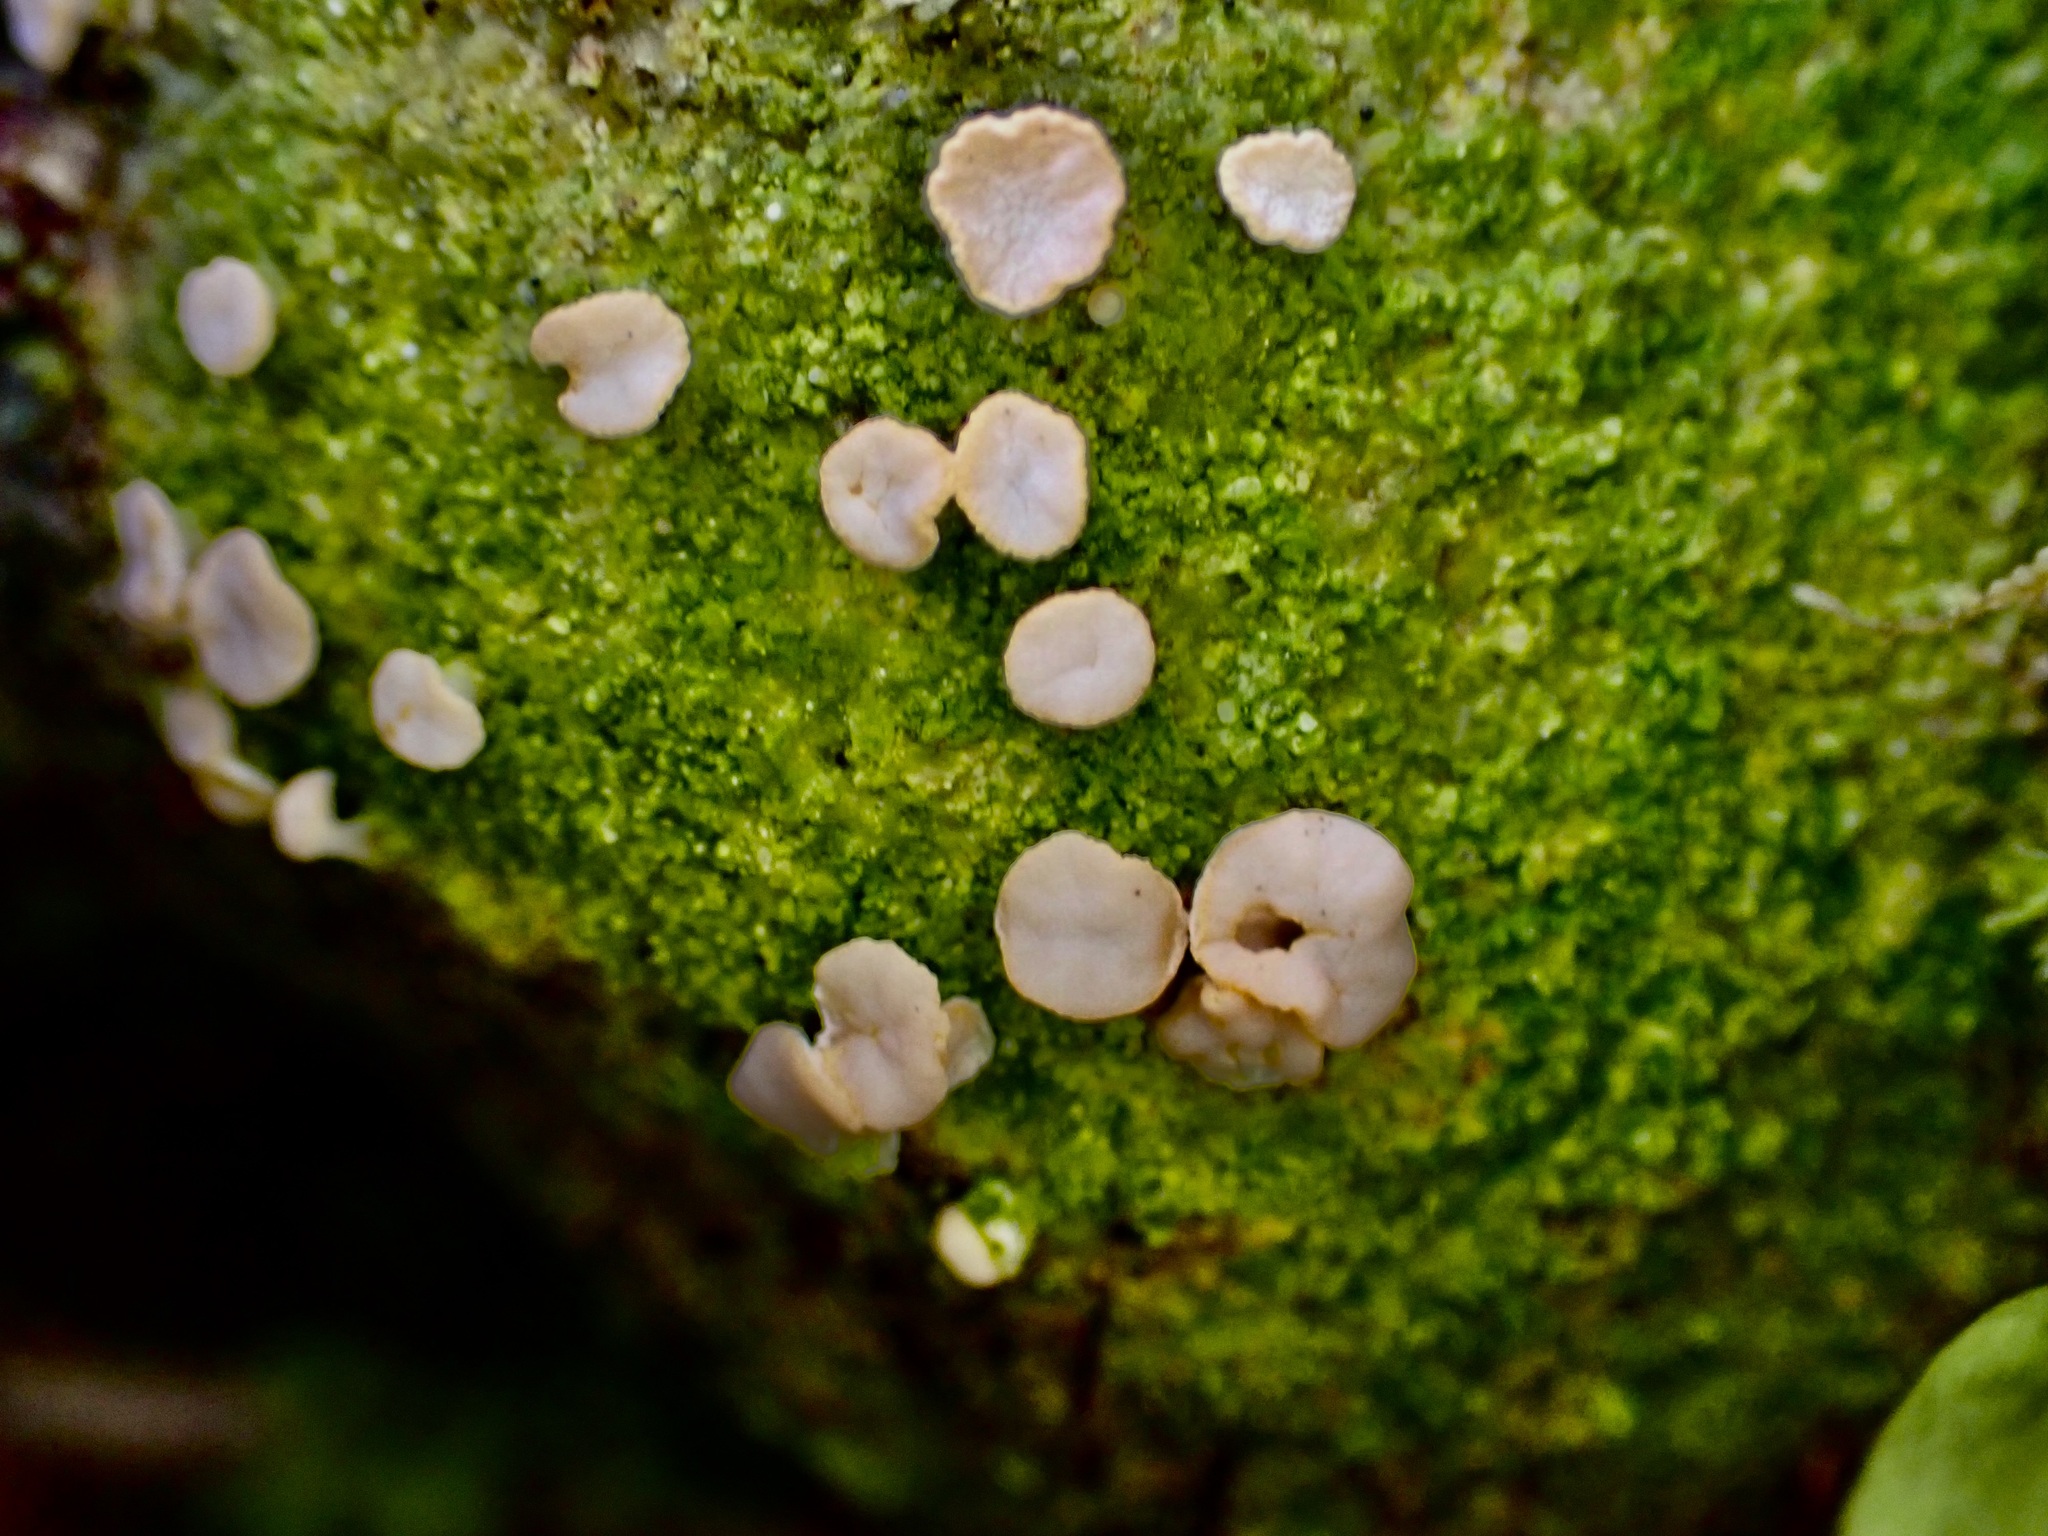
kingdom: Fungi
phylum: Ascomycota
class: Lecanoromycetes
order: Pertusariales
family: Icmadophilaceae
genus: Dibaeis
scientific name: Dibaeis absoluta
